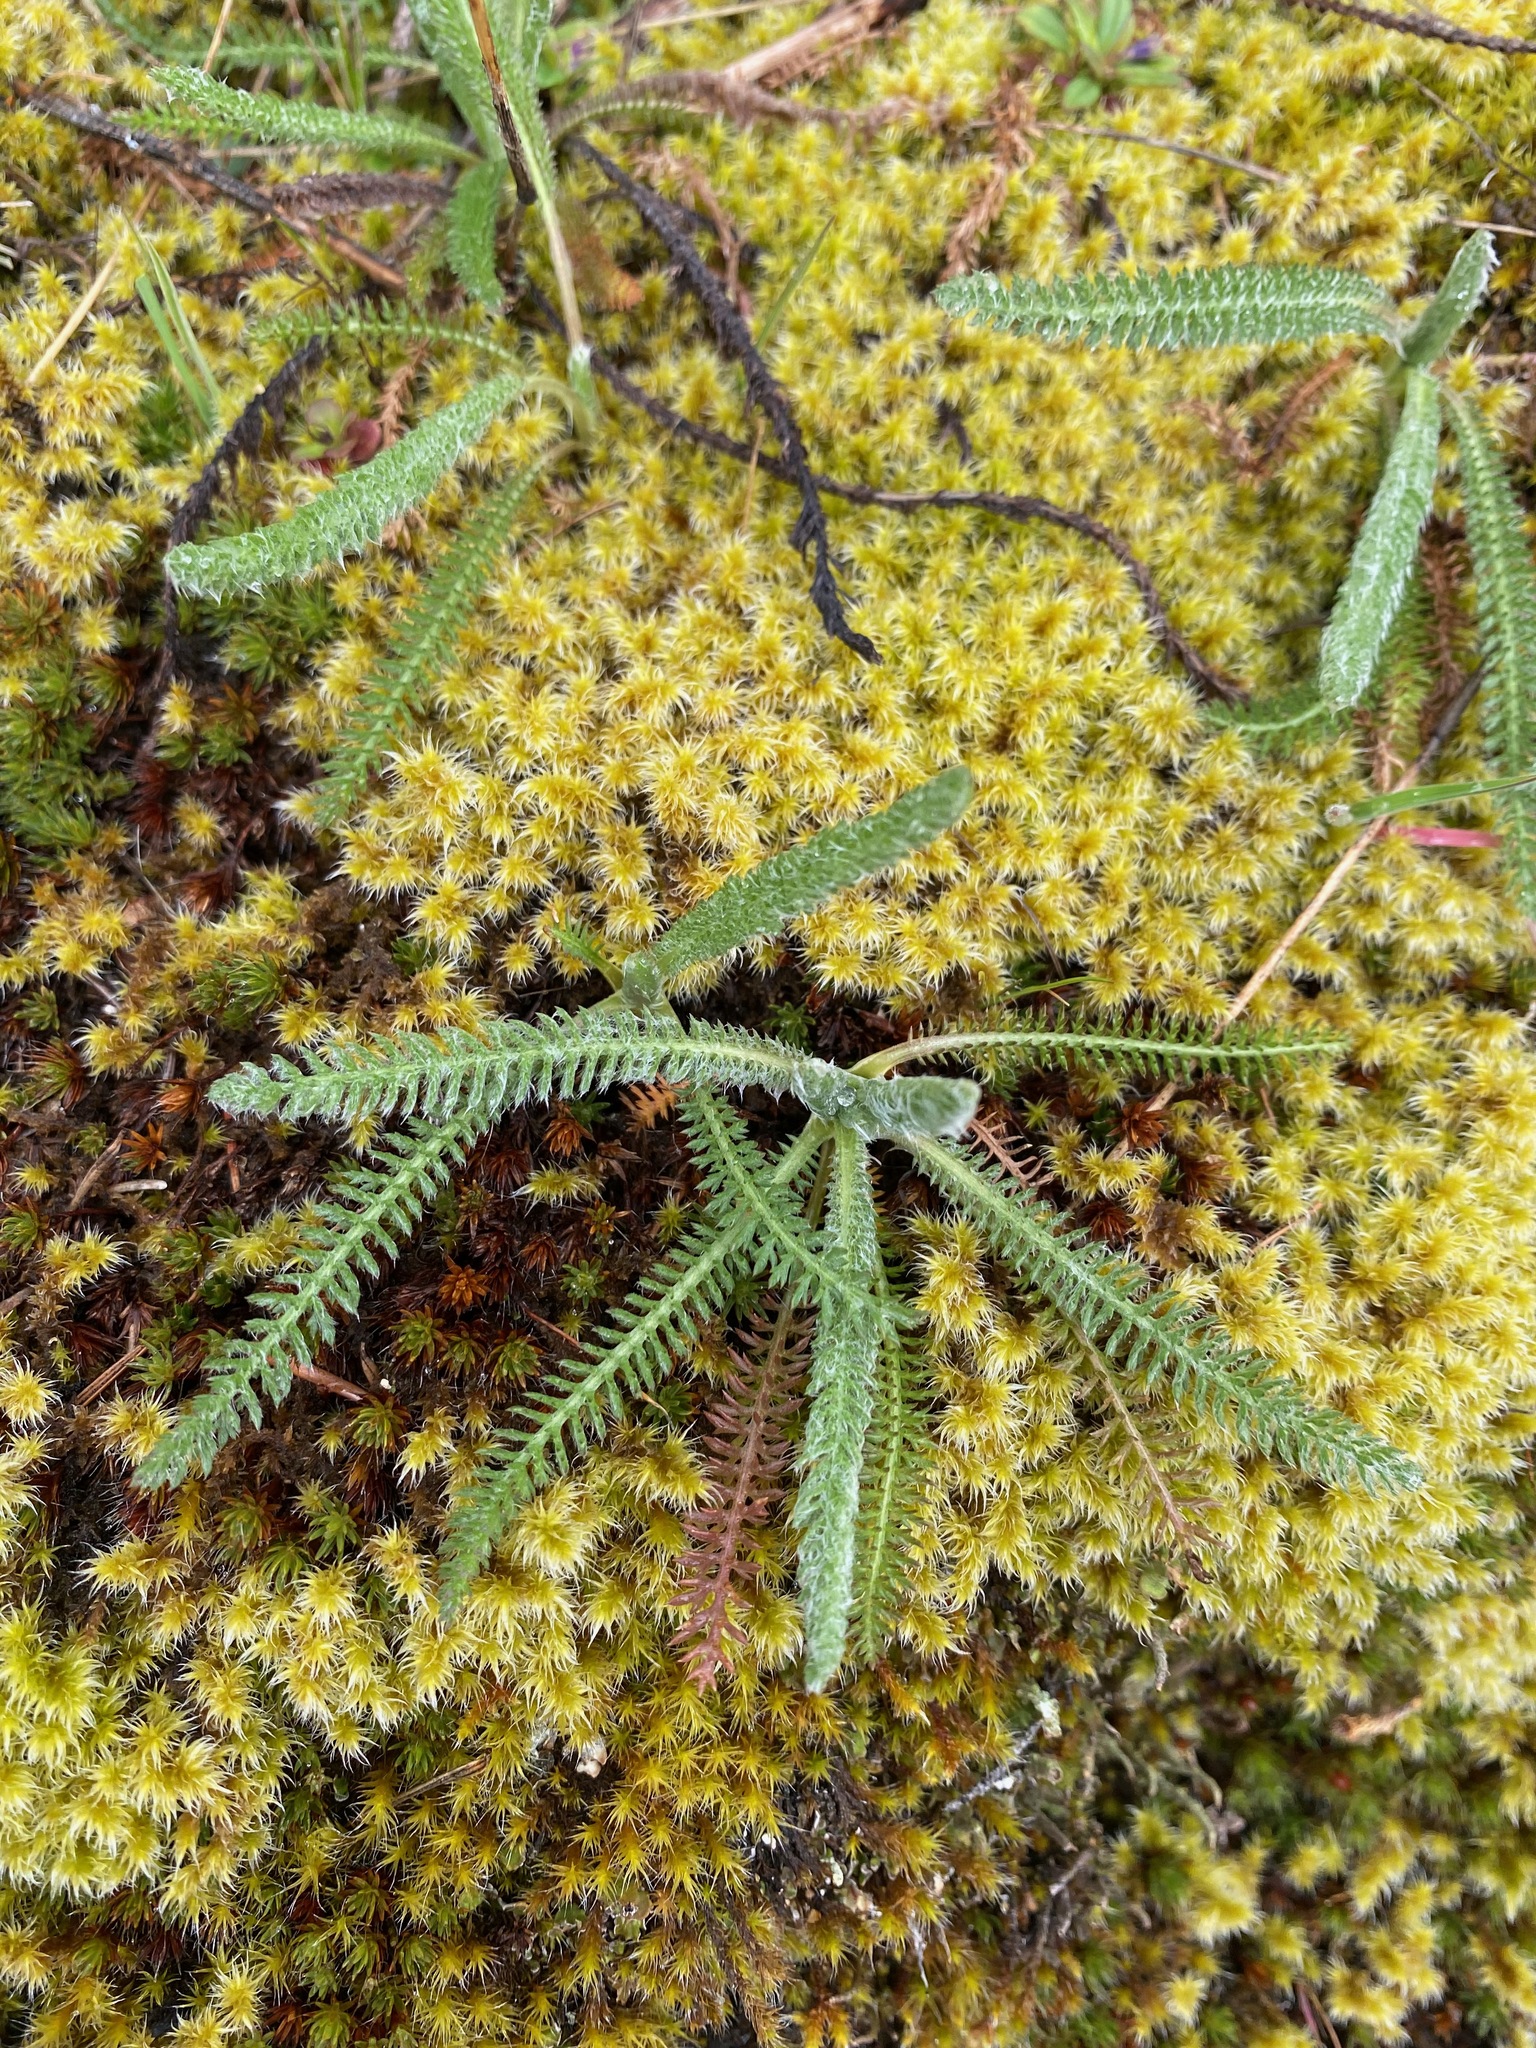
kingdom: Plantae
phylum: Tracheophyta
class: Magnoliopsida
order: Asterales
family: Asteraceae
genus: Achillea
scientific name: Achillea millefolium
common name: Yarrow
